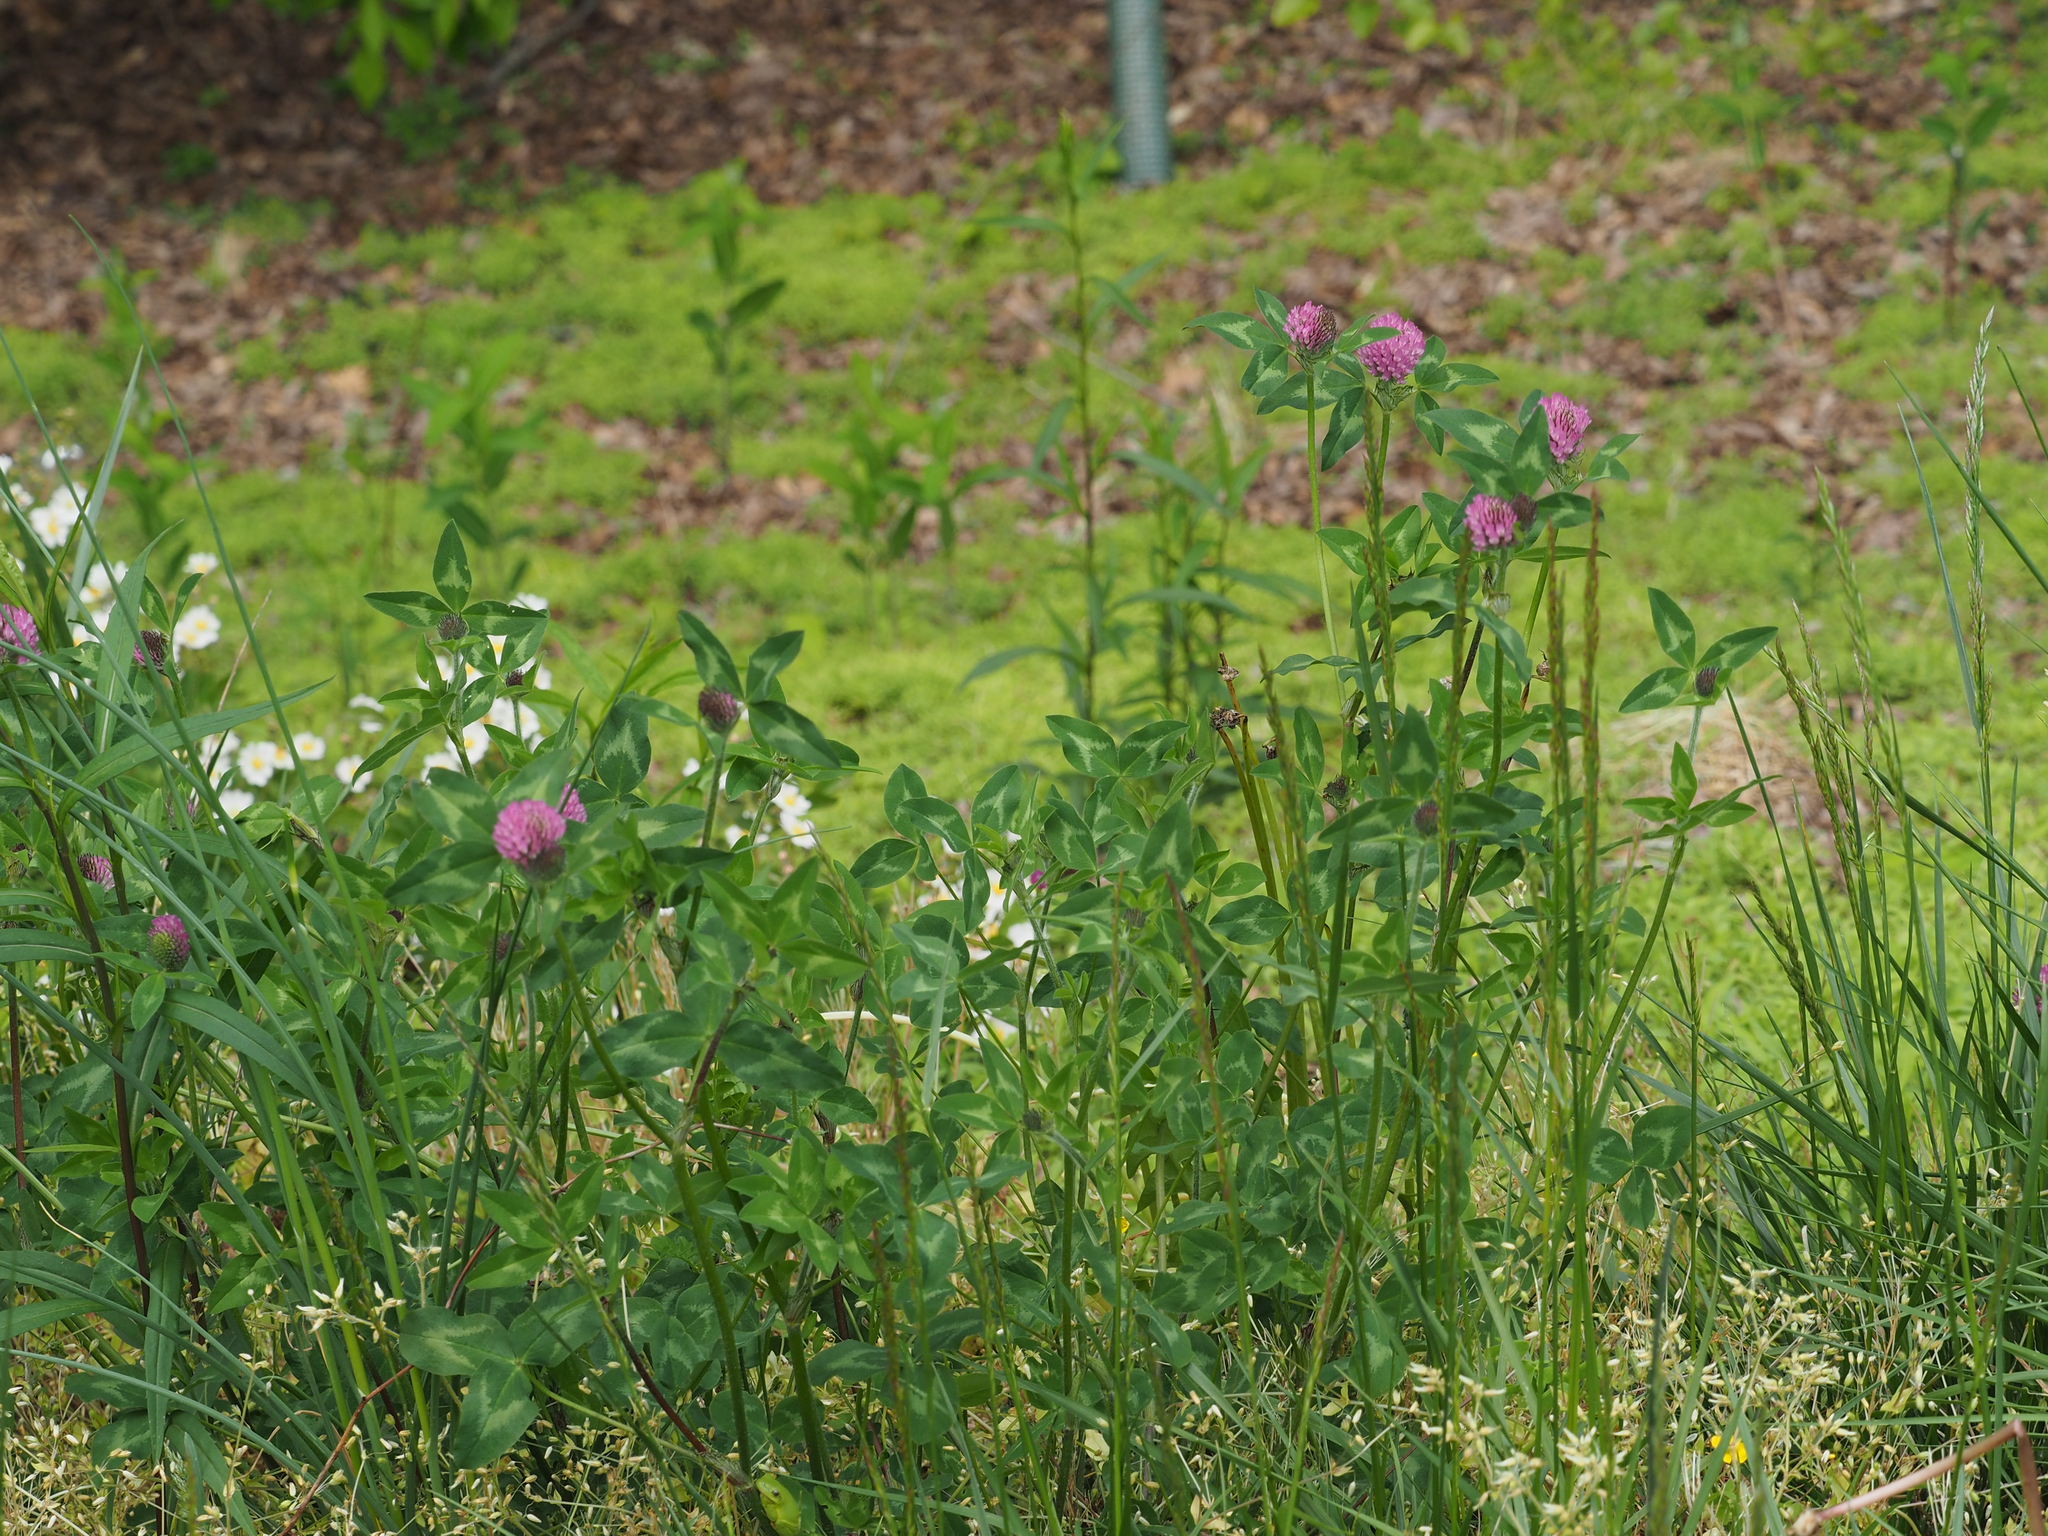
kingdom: Plantae
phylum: Tracheophyta
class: Magnoliopsida
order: Fabales
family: Fabaceae
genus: Trifolium
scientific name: Trifolium pratense
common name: Red clover
